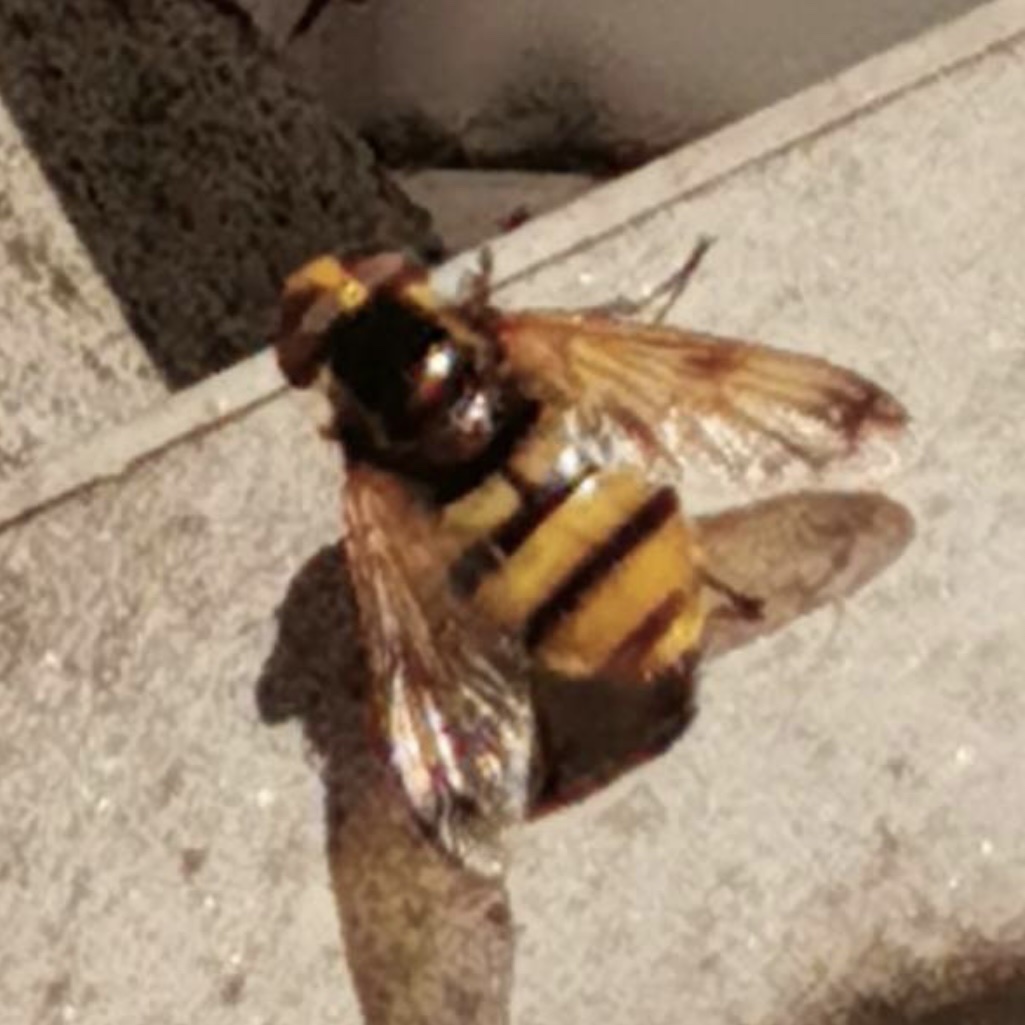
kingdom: Animalia
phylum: Arthropoda
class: Insecta
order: Diptera
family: Syrphidae
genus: Volucella
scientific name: Volucella inanis
